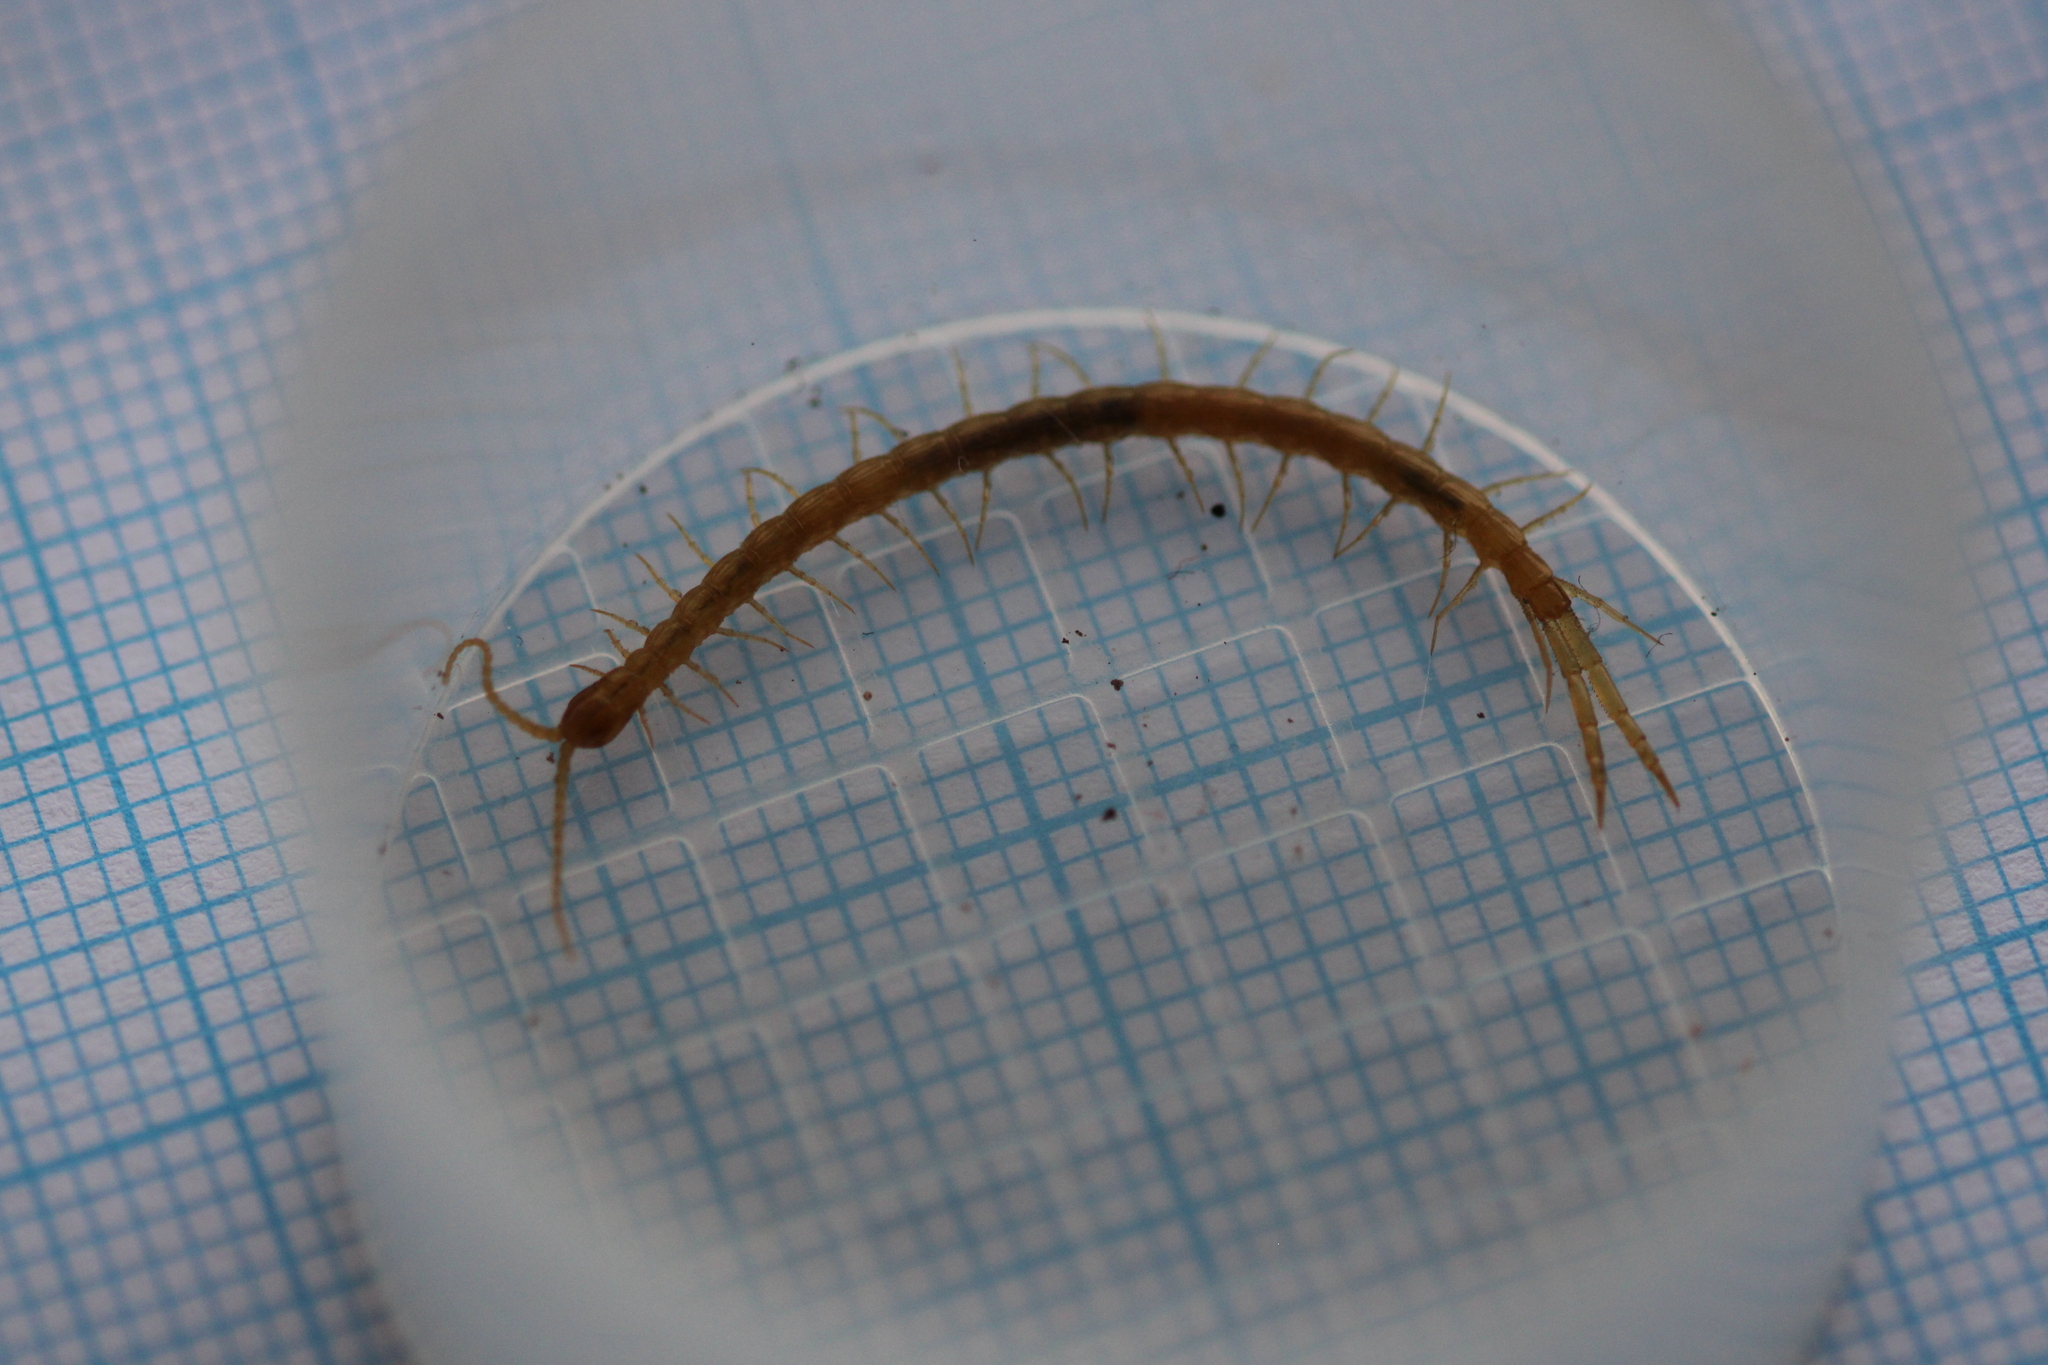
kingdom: Animalia
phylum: Arthropoda
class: Chilopoda
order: Scolopendromorpha
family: Cryptopidae
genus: Cryptops
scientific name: Cryptops anomalans
